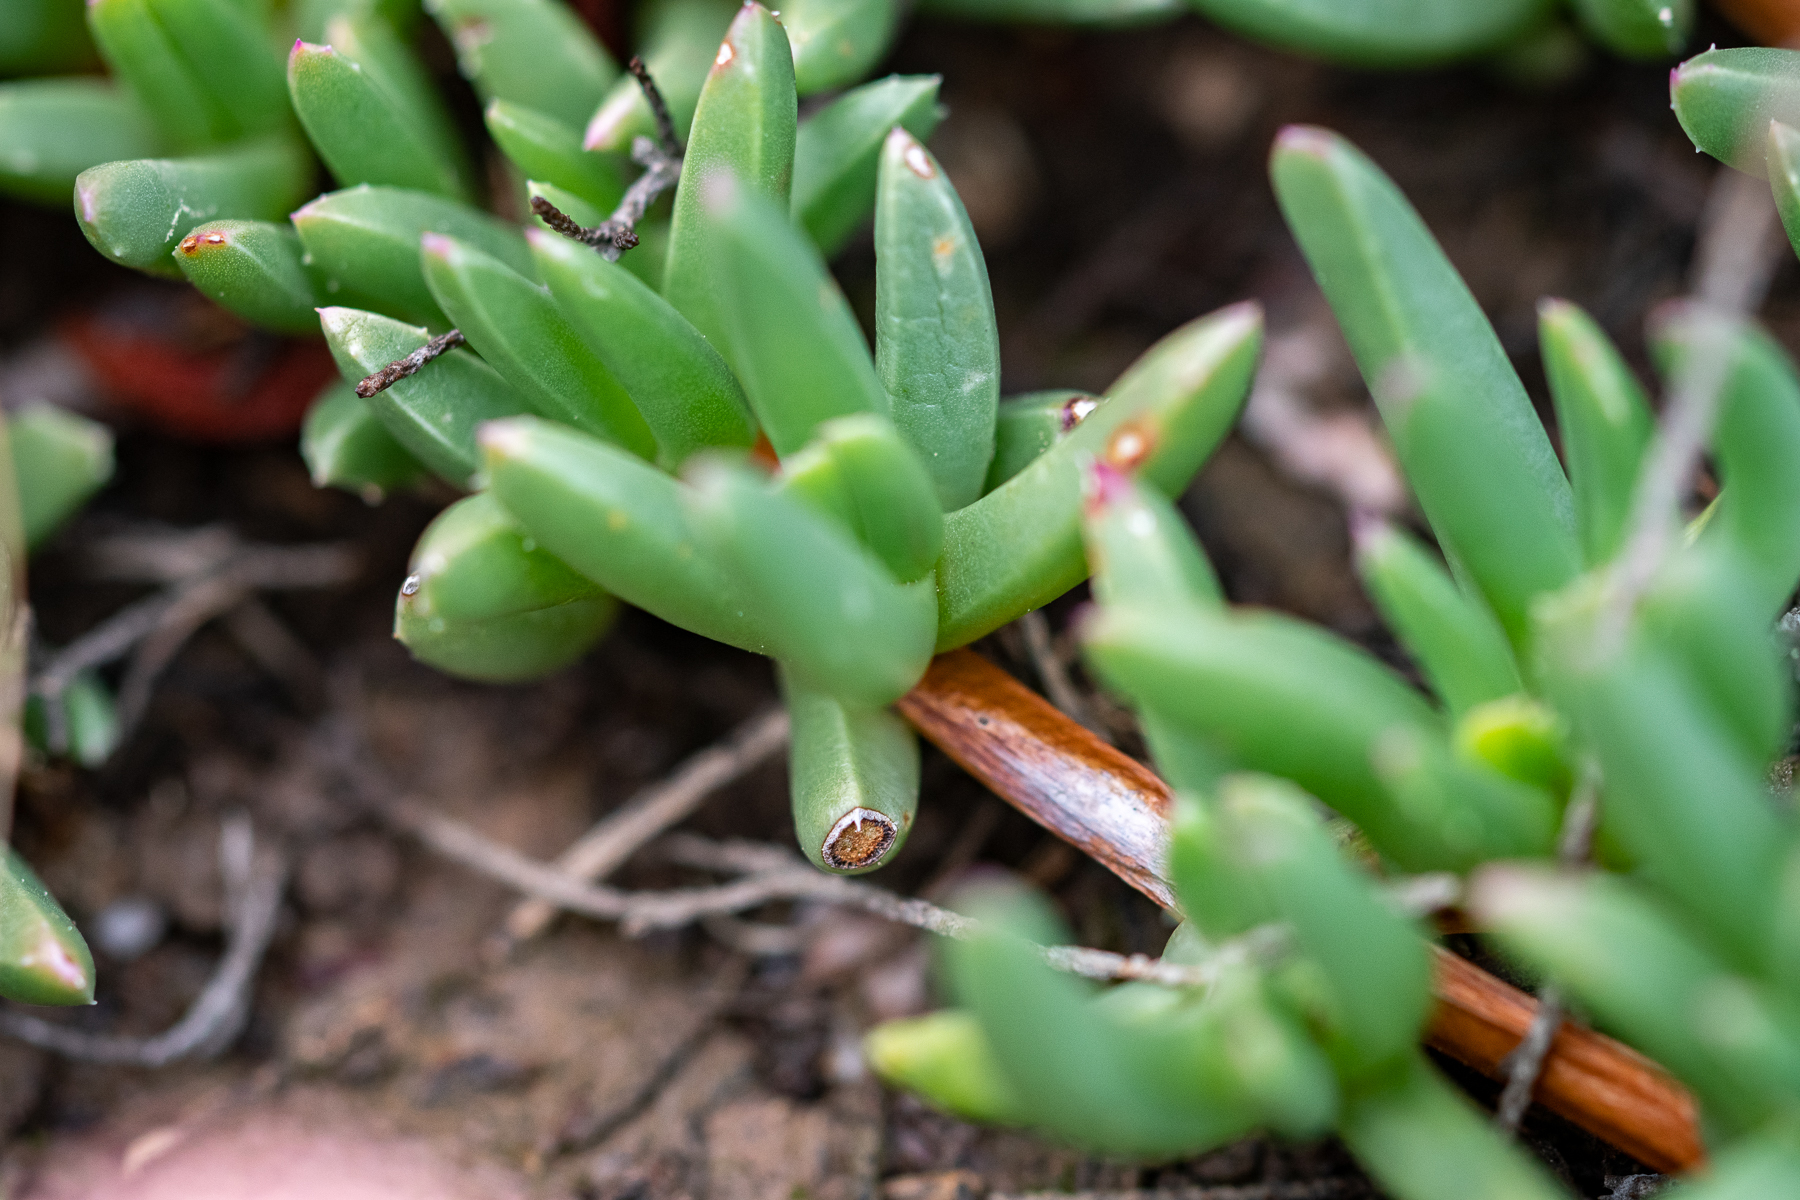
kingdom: Plantae
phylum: Tracheophyta
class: Magnoliopsida
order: Caryophyllales
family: Aizoaceae
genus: Acrodon
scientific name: Acrodon parvifolius
